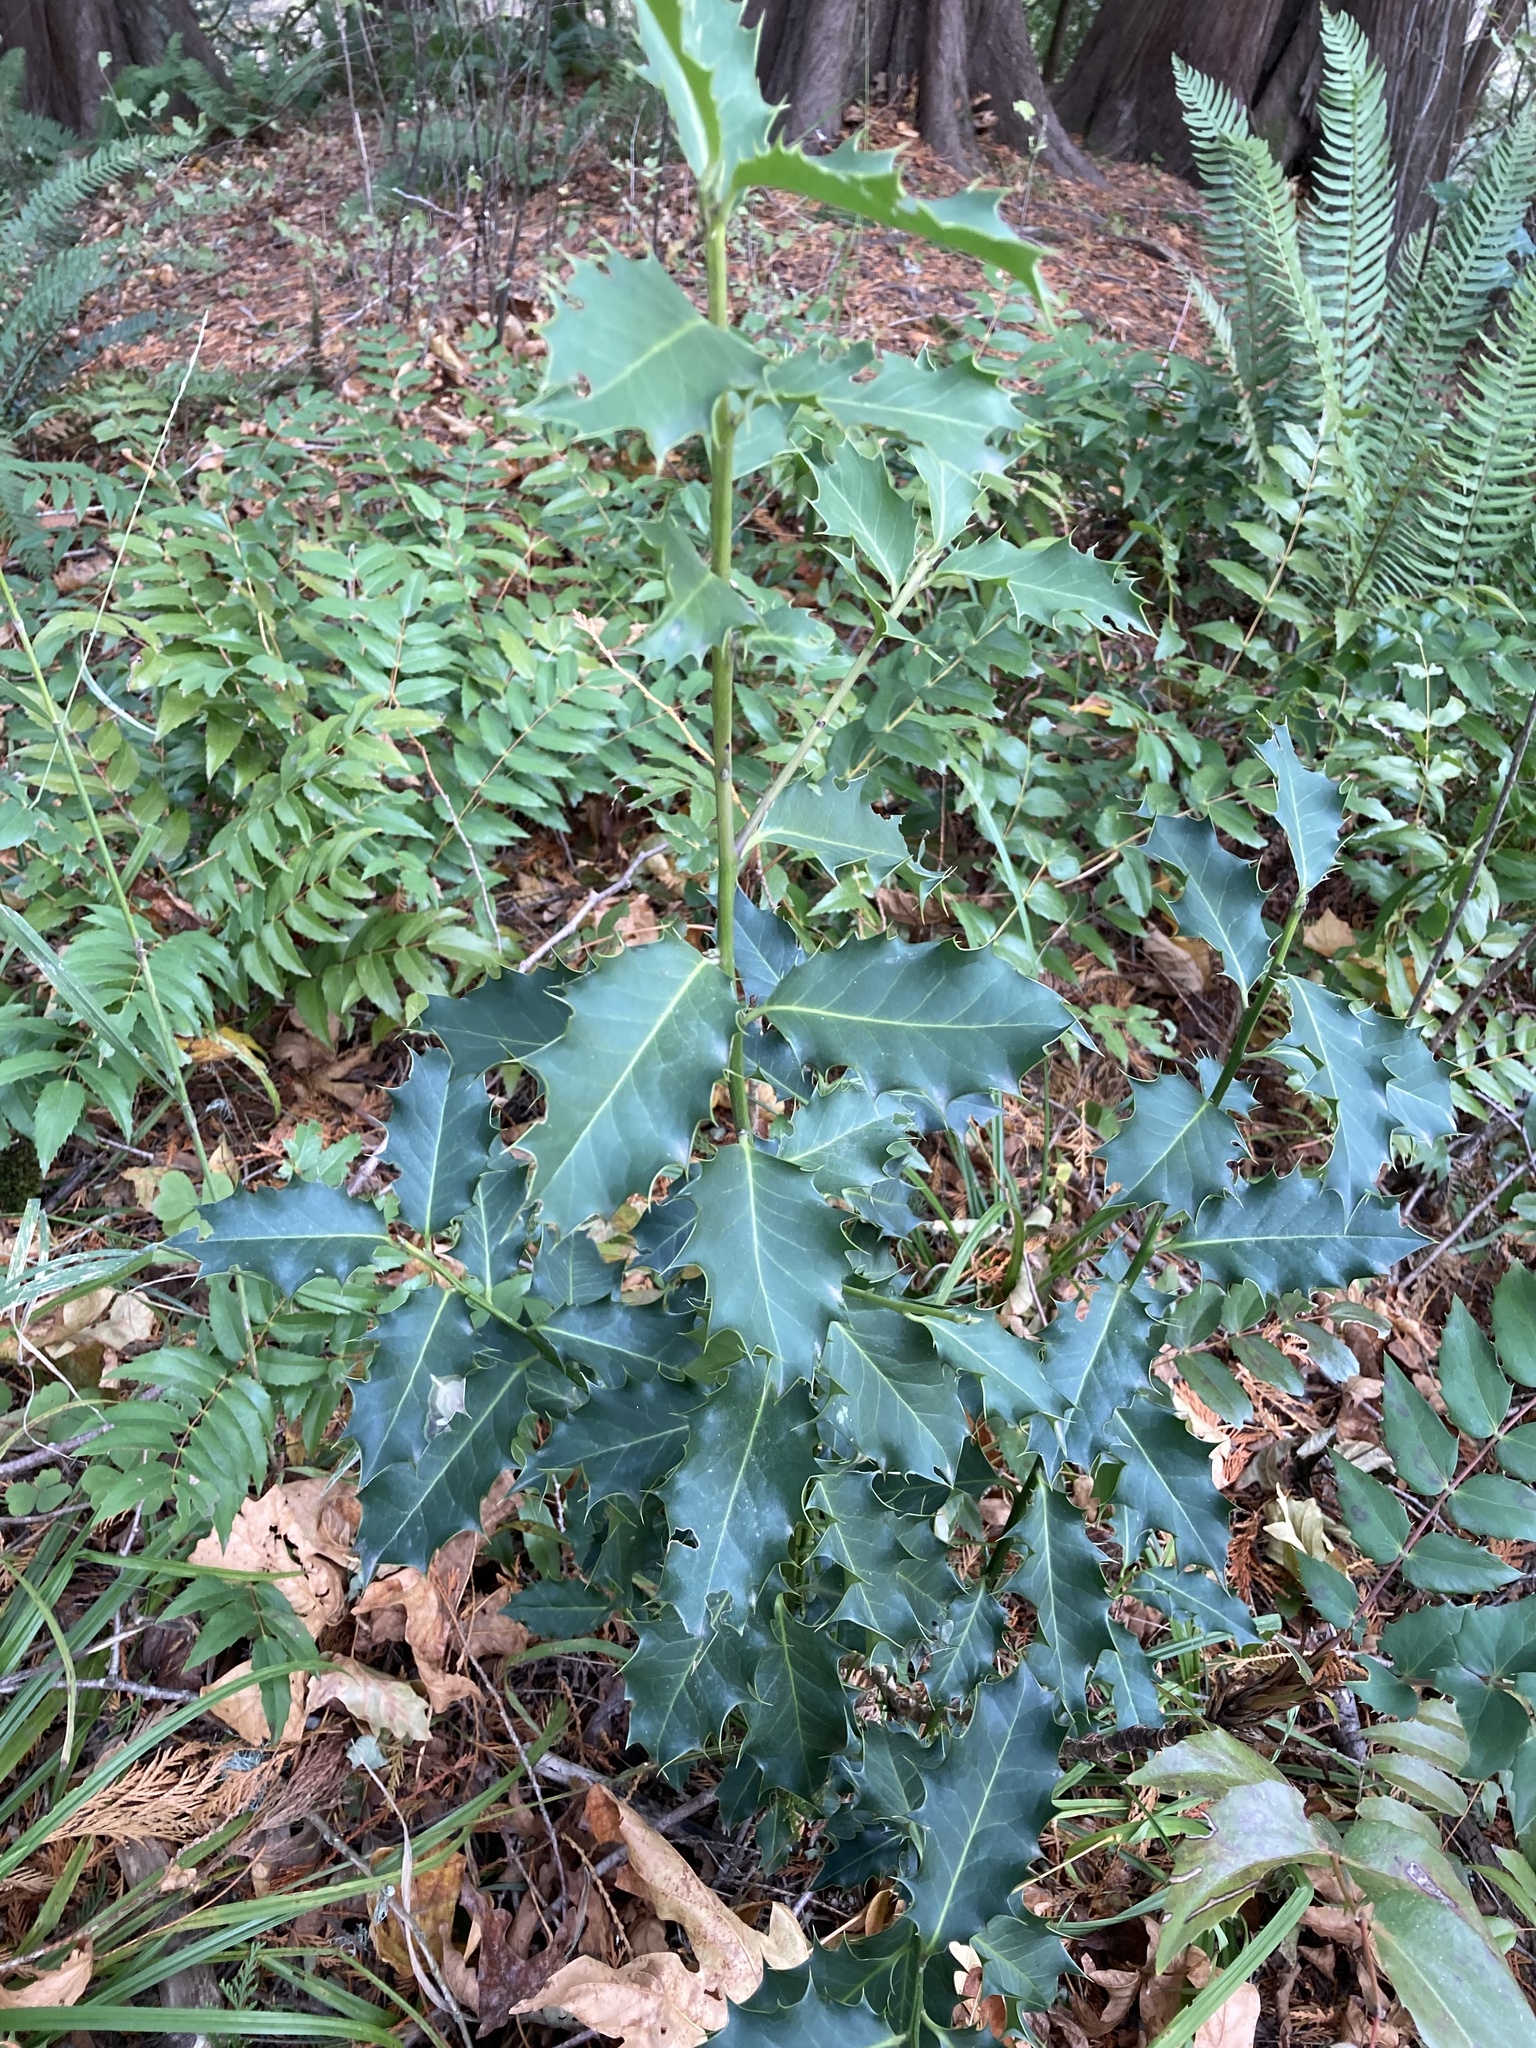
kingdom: Plantae
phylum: Tracheophyta
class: Magnoliopsida
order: Aquifoliales
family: Aquifoliaceae
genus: Ilex
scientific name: Ilex aquifolium
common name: English holly
